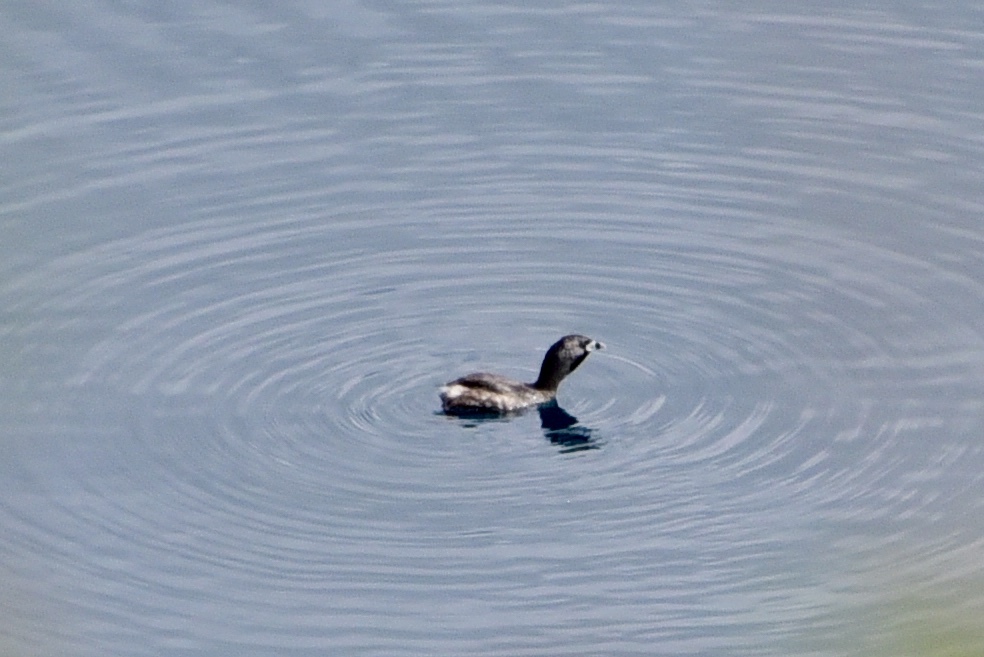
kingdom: Animalia
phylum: Chordata
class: Aves
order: Podicipediformes
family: Podicipedidae
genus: Podilymbus
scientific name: Podilymbus podiceps
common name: Pied-billed grebe
